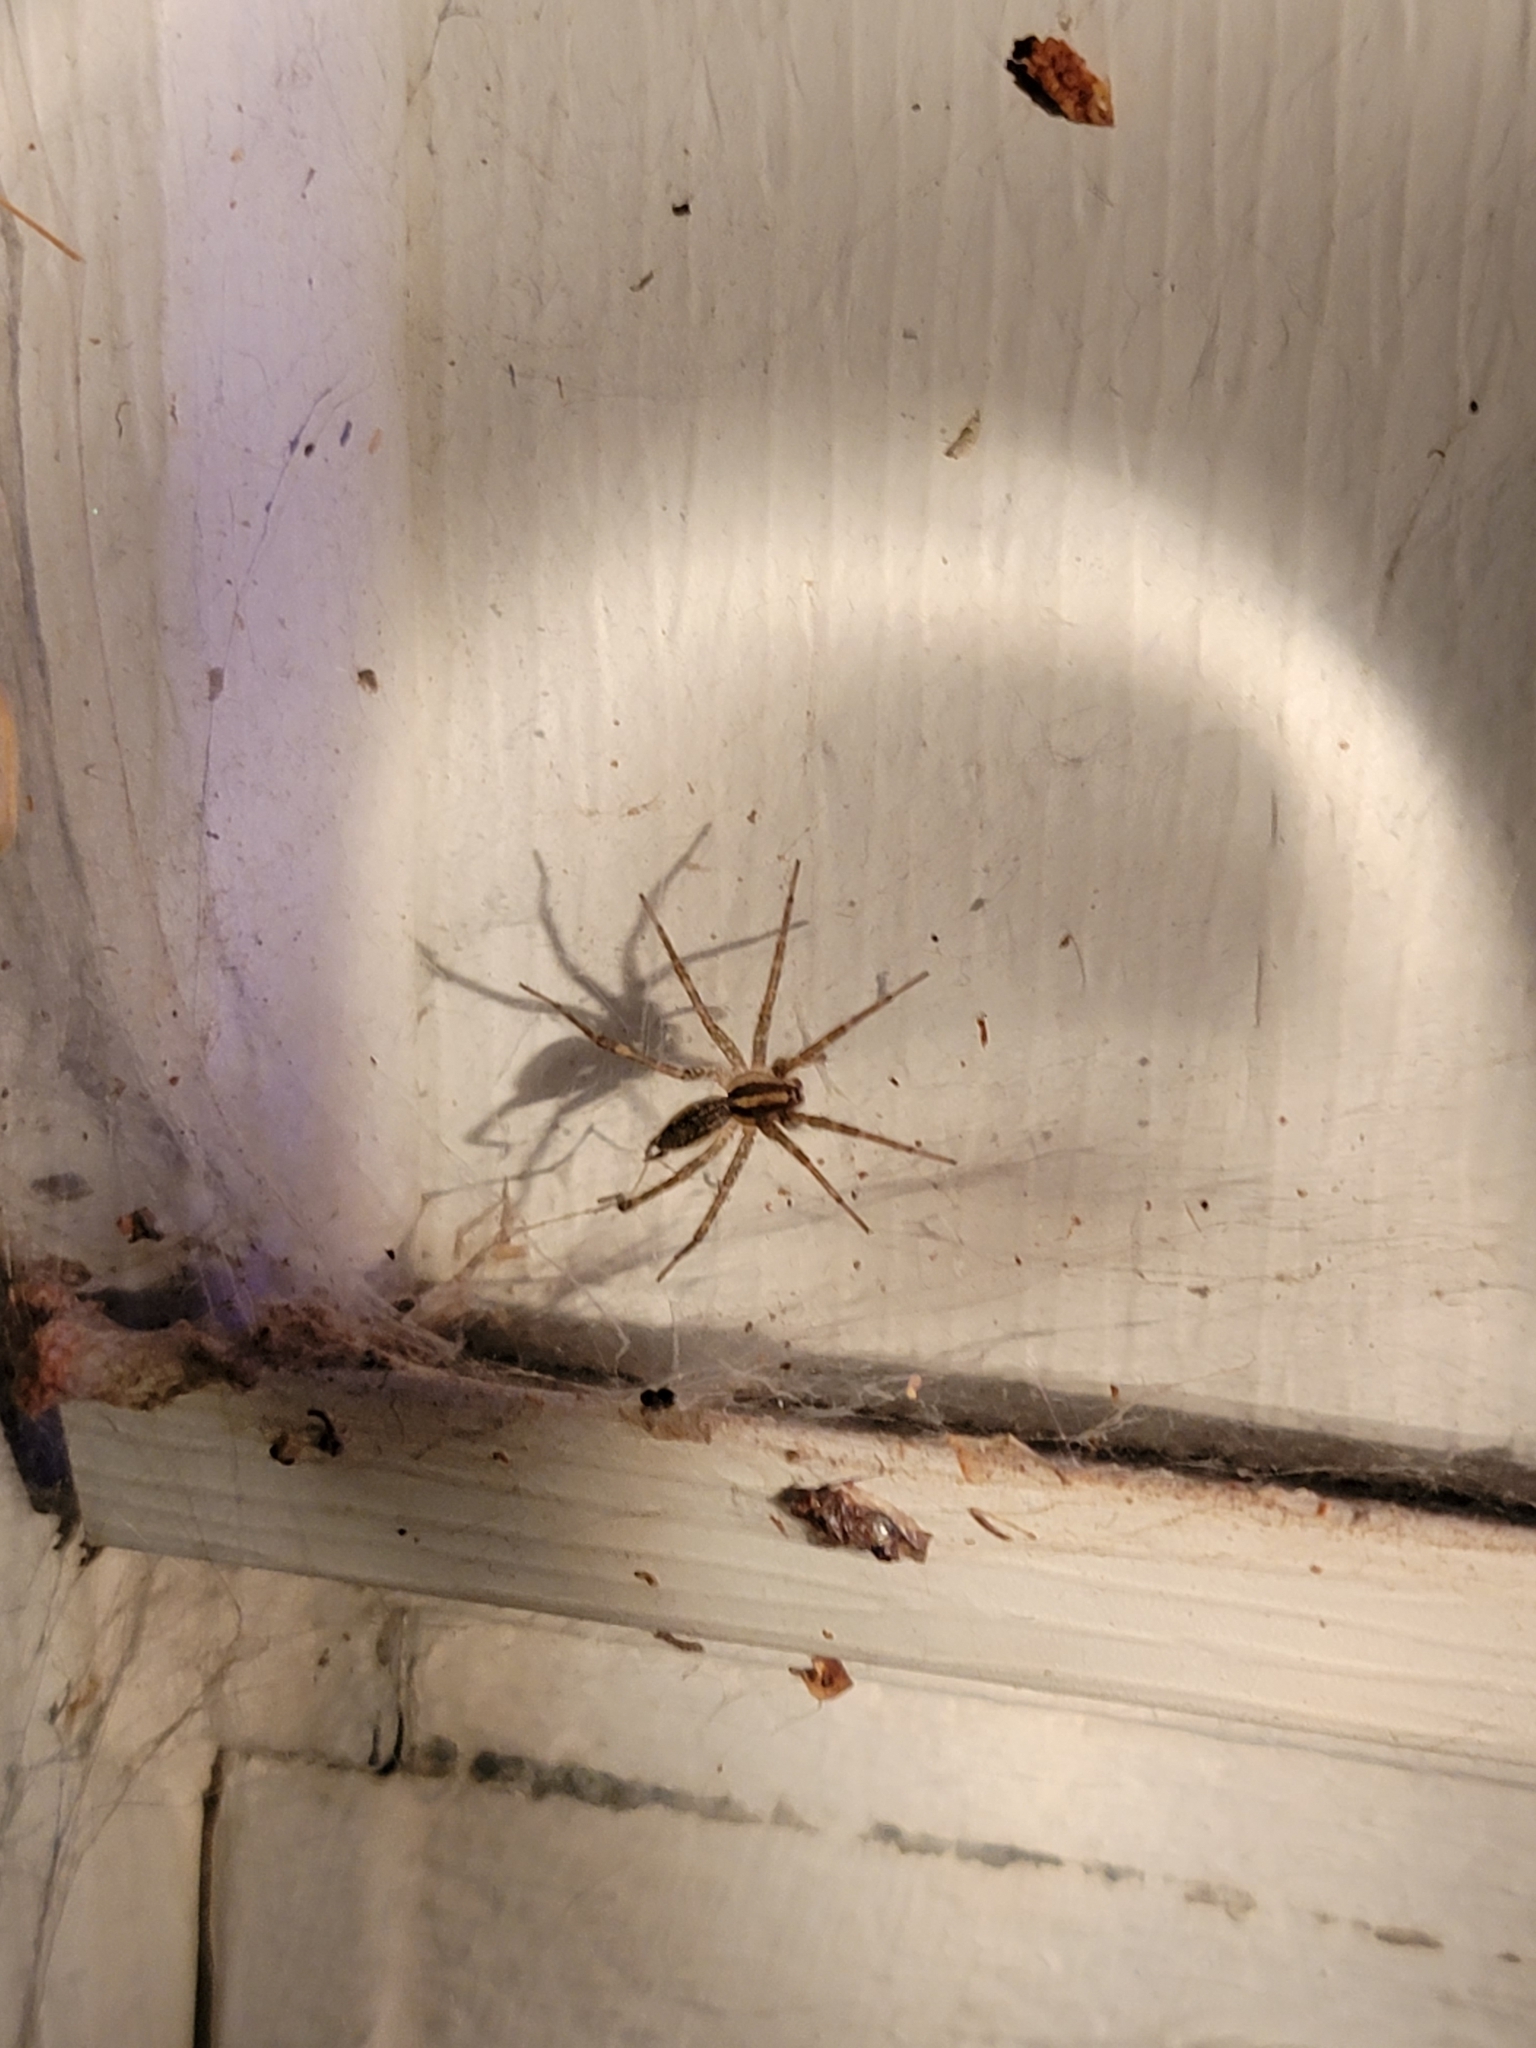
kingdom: Animalia
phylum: Arthropoda
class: Arachnida
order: Araneae
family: Agelenidae
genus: Agelenopsis
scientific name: Agelenopsis
